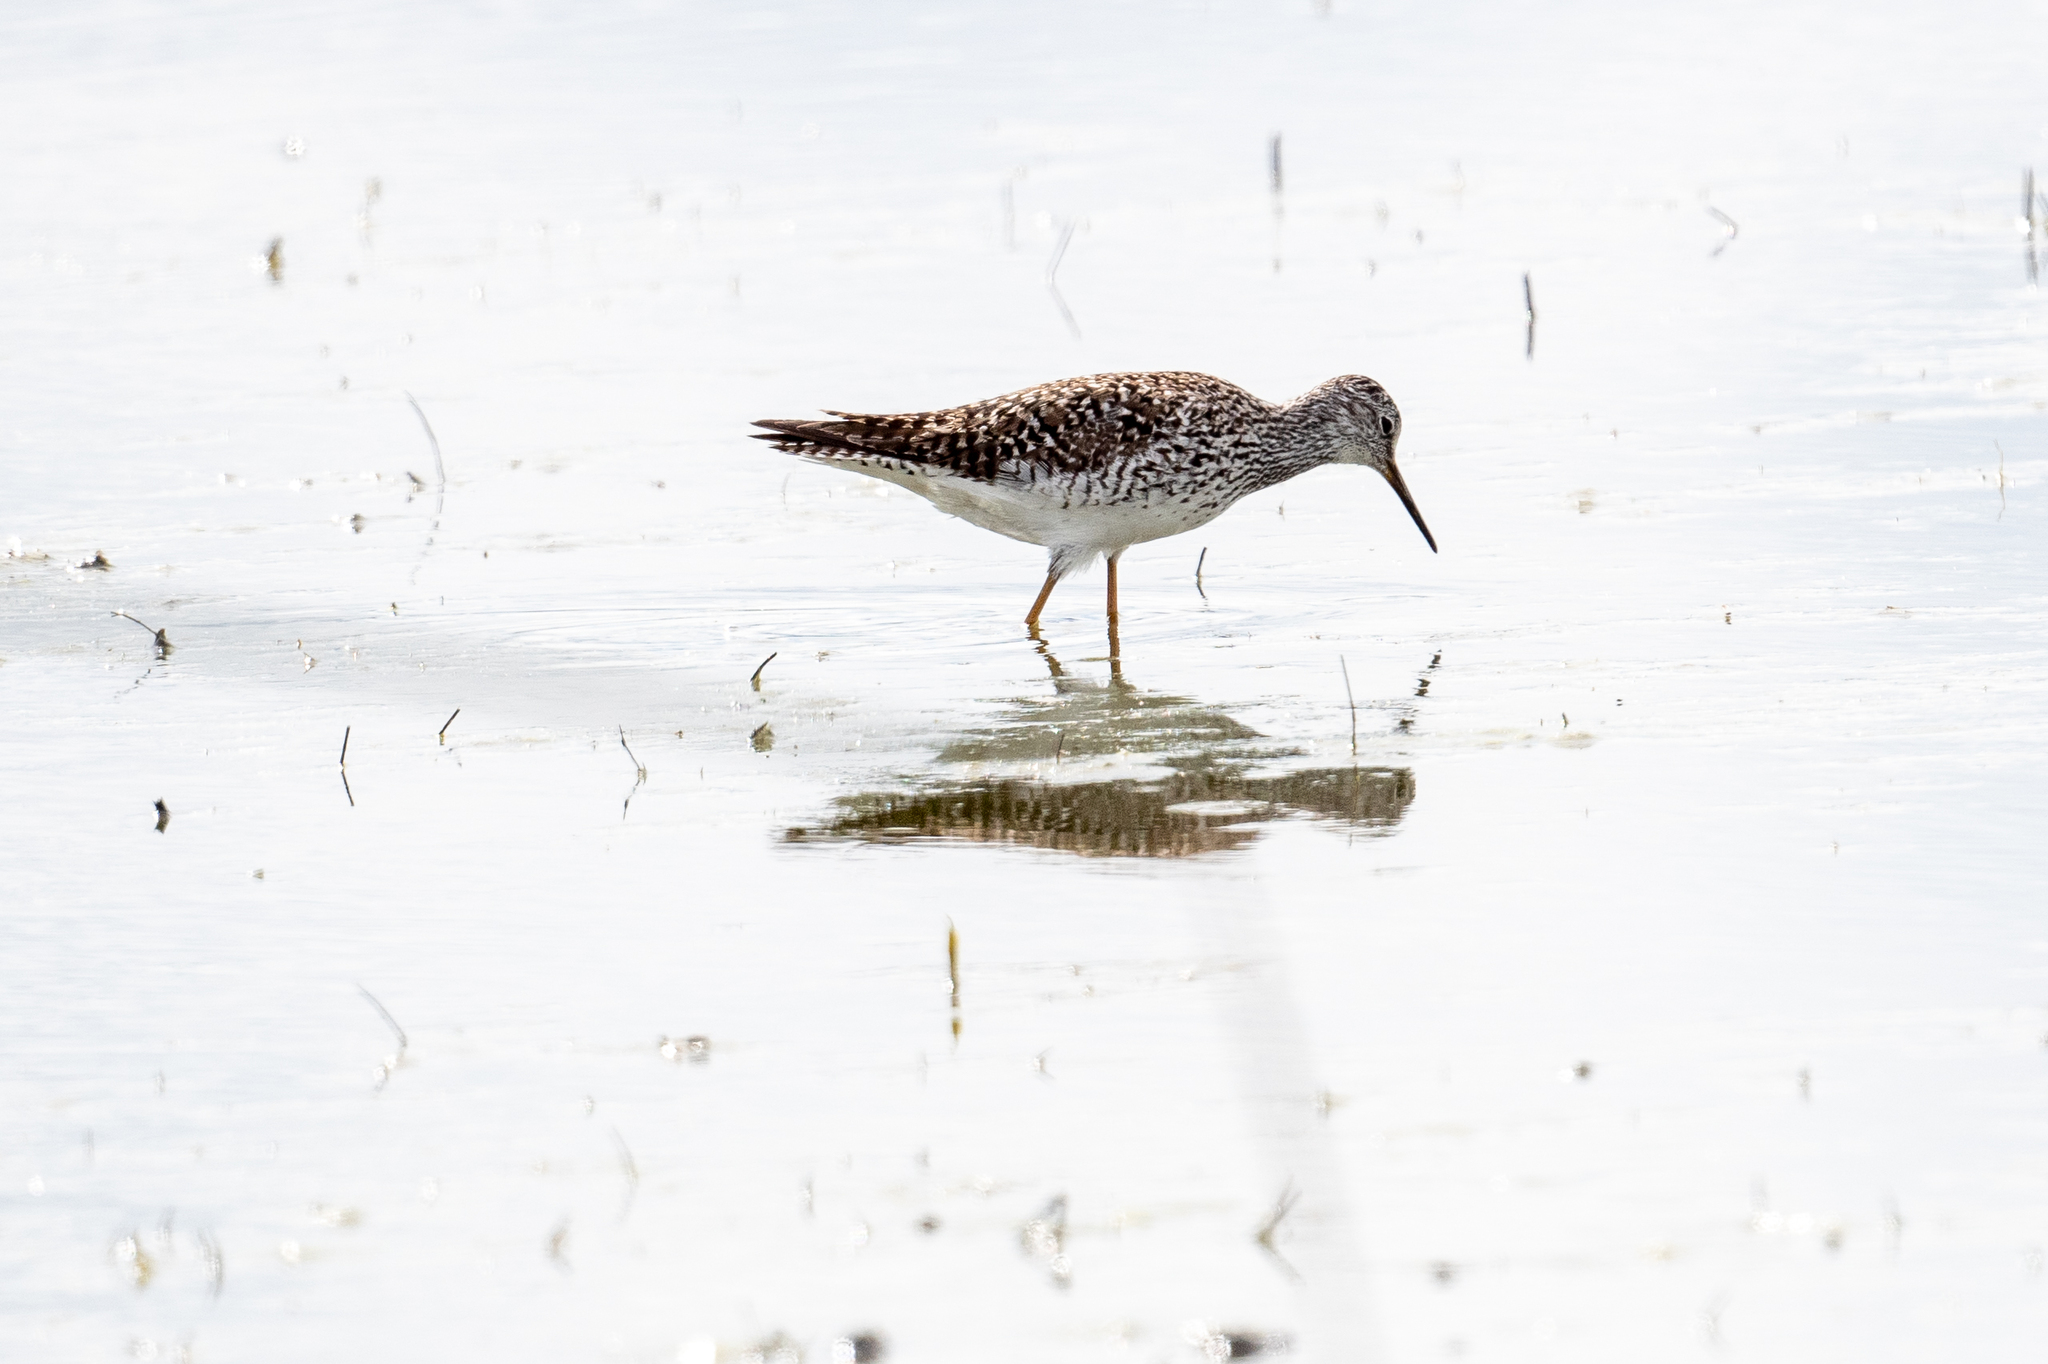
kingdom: Animalia
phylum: Chordata
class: Aves
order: Charadriiformes
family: Scolopacidae
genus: Tringa
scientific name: Tringa flavipes
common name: Lesser yellowlegs
